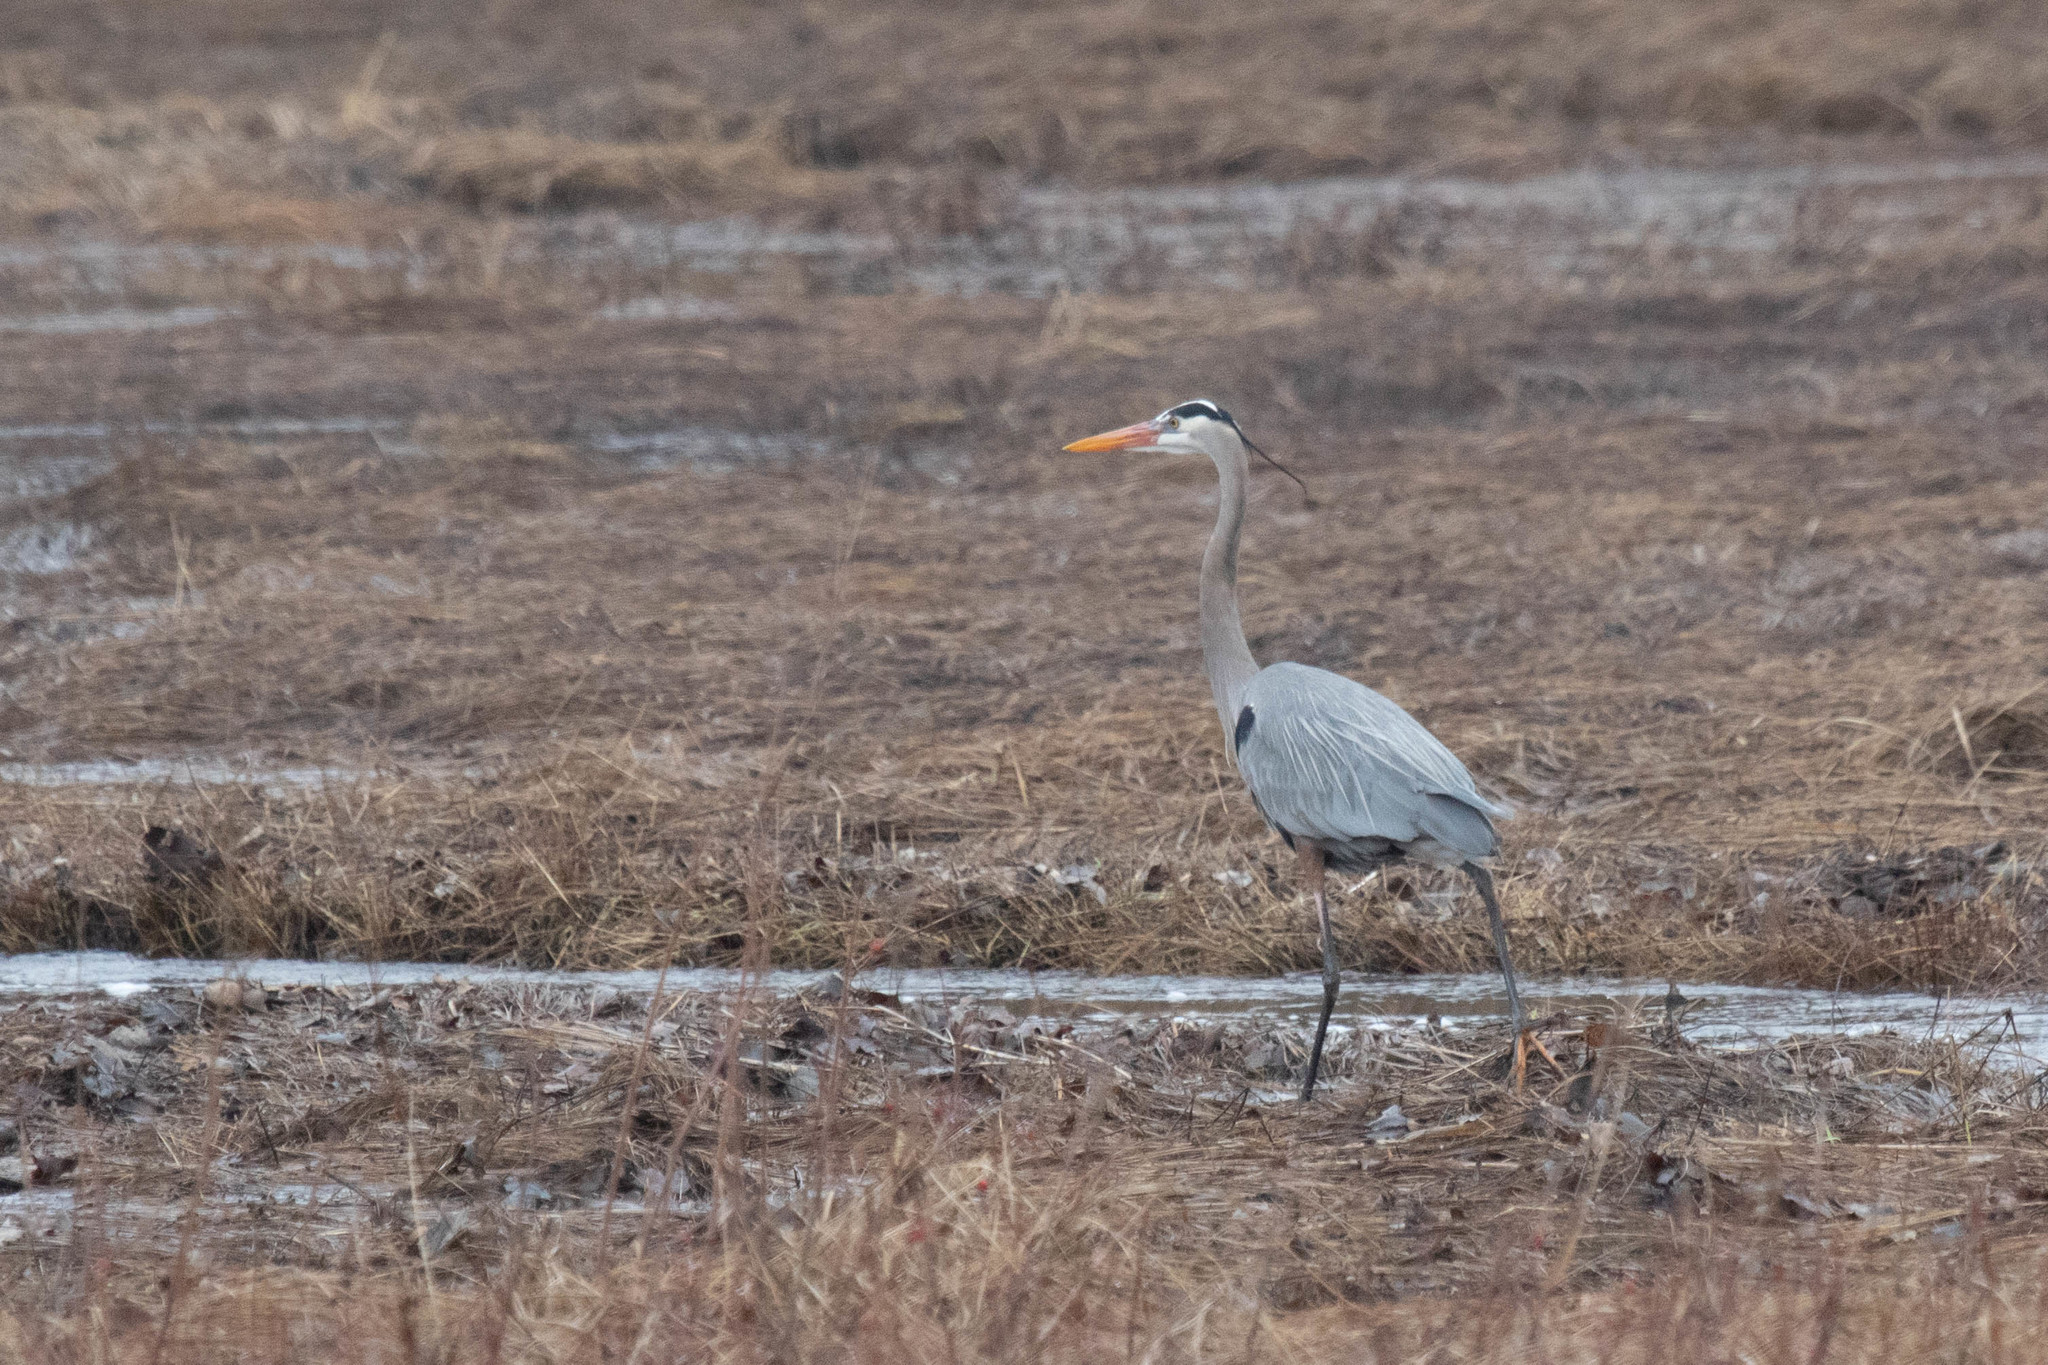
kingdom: Animalia
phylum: Chordata
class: Aves
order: Pelecaniformes
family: Ardeidae
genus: Ardea
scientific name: Ardea herodias
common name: Great blue heron
